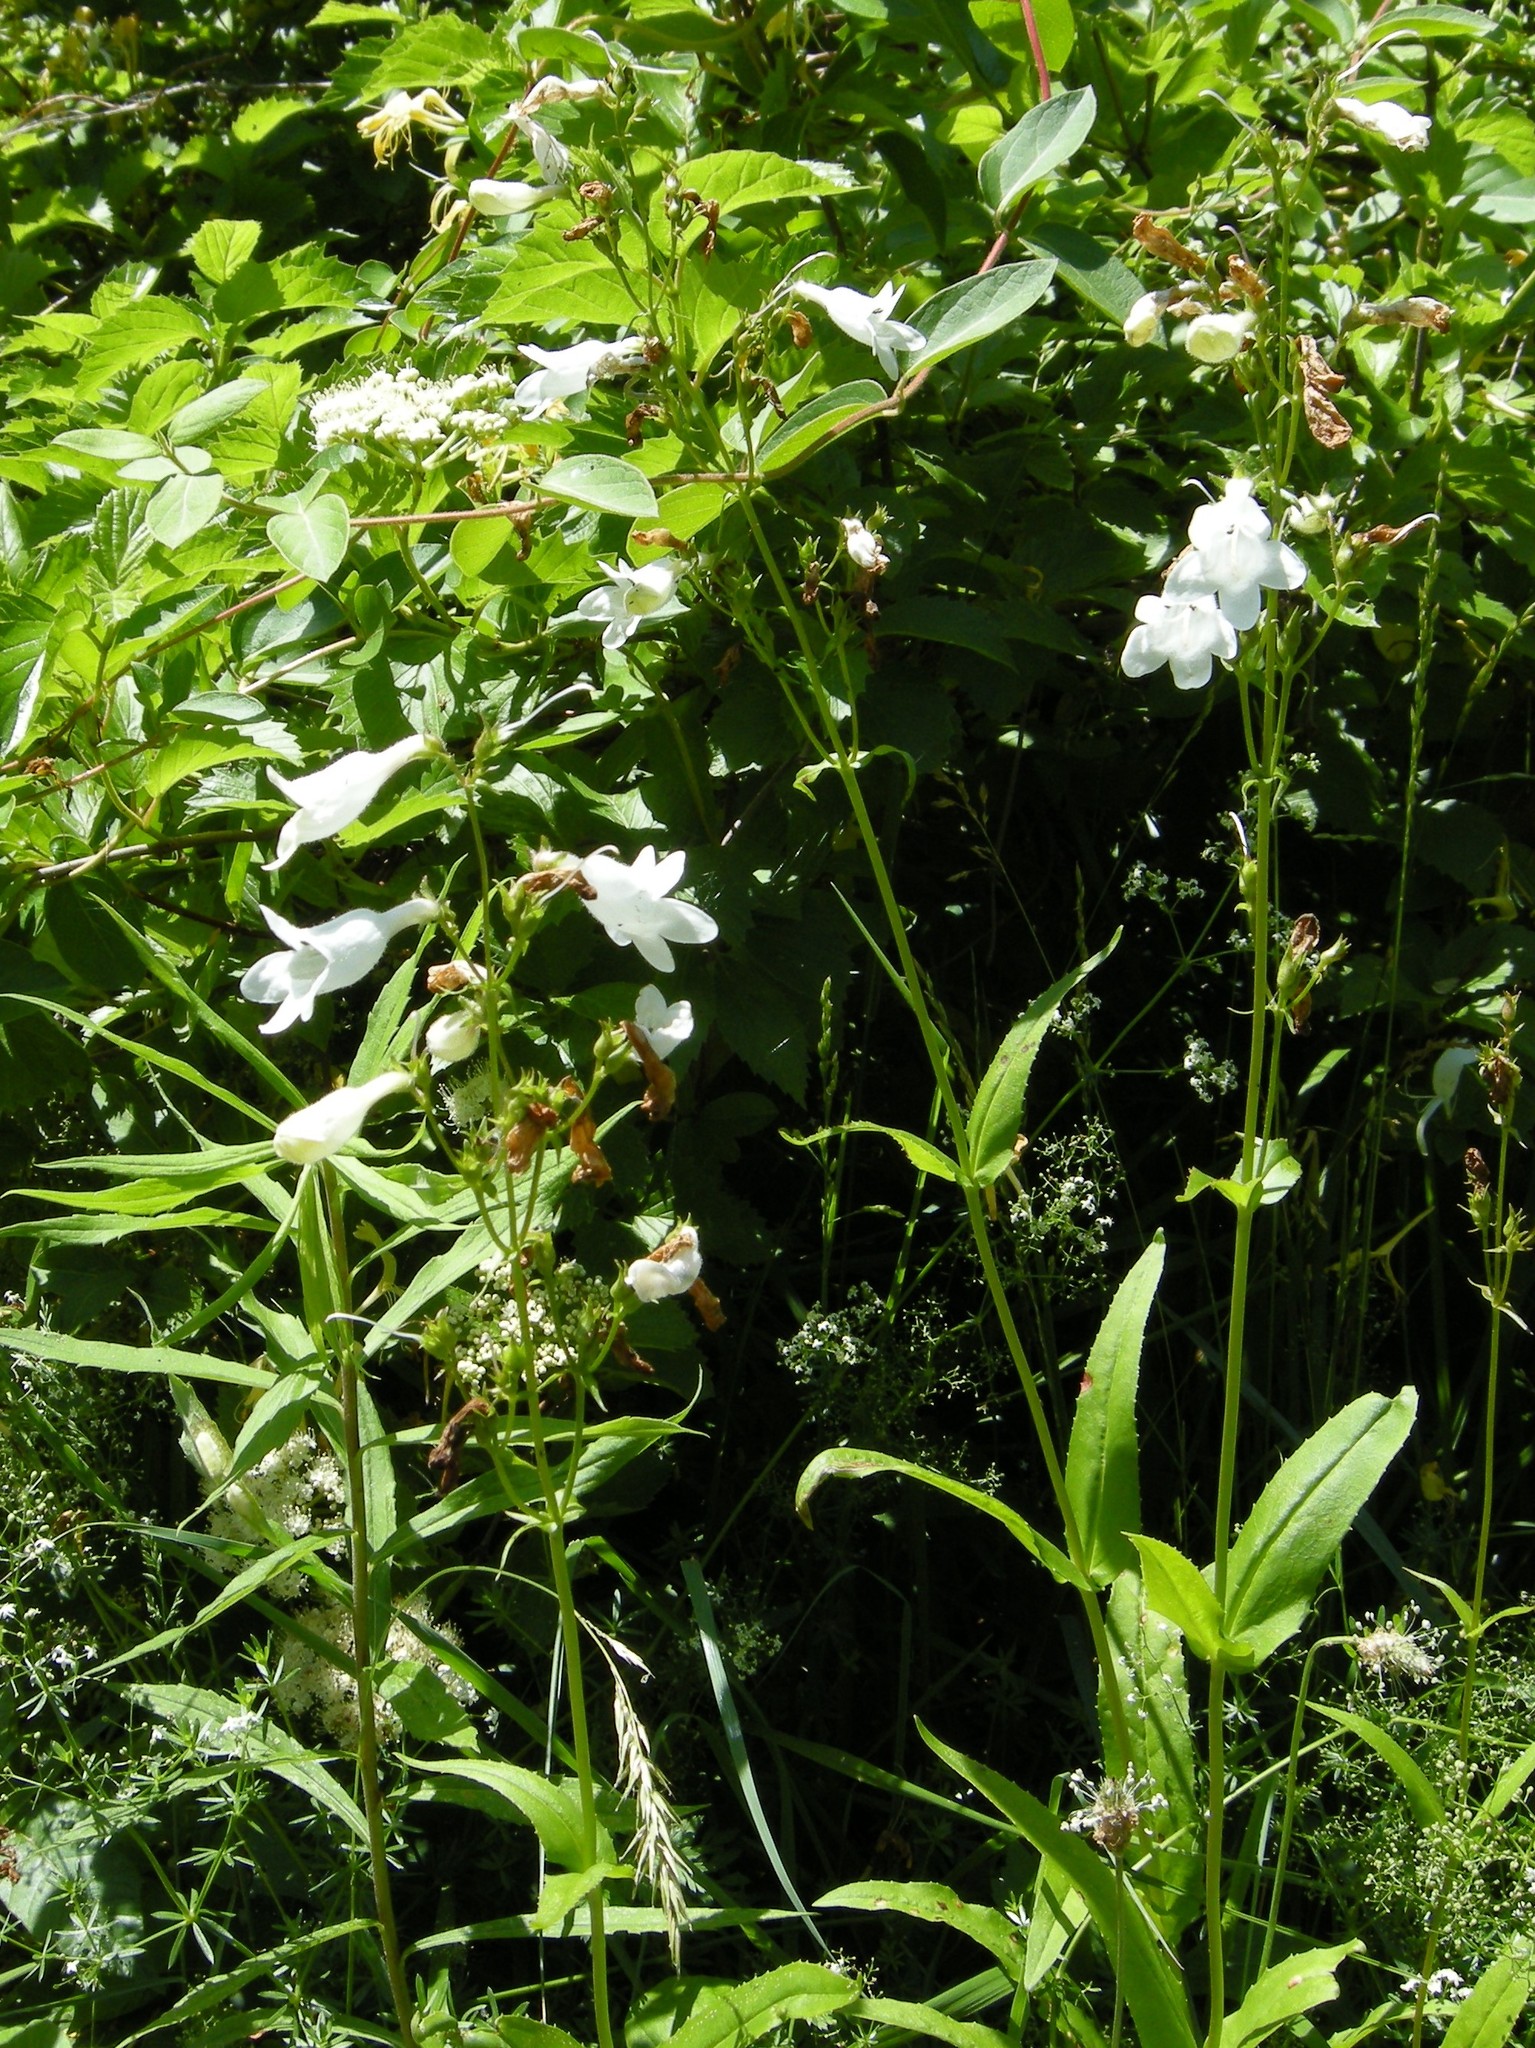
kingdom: Plantae
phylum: Tracheophyta
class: Magnoliopsida
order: Lamiales
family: Plantaginaceae
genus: Penstemon
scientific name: Penstemon digitalis
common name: Foxglove beardtongue
